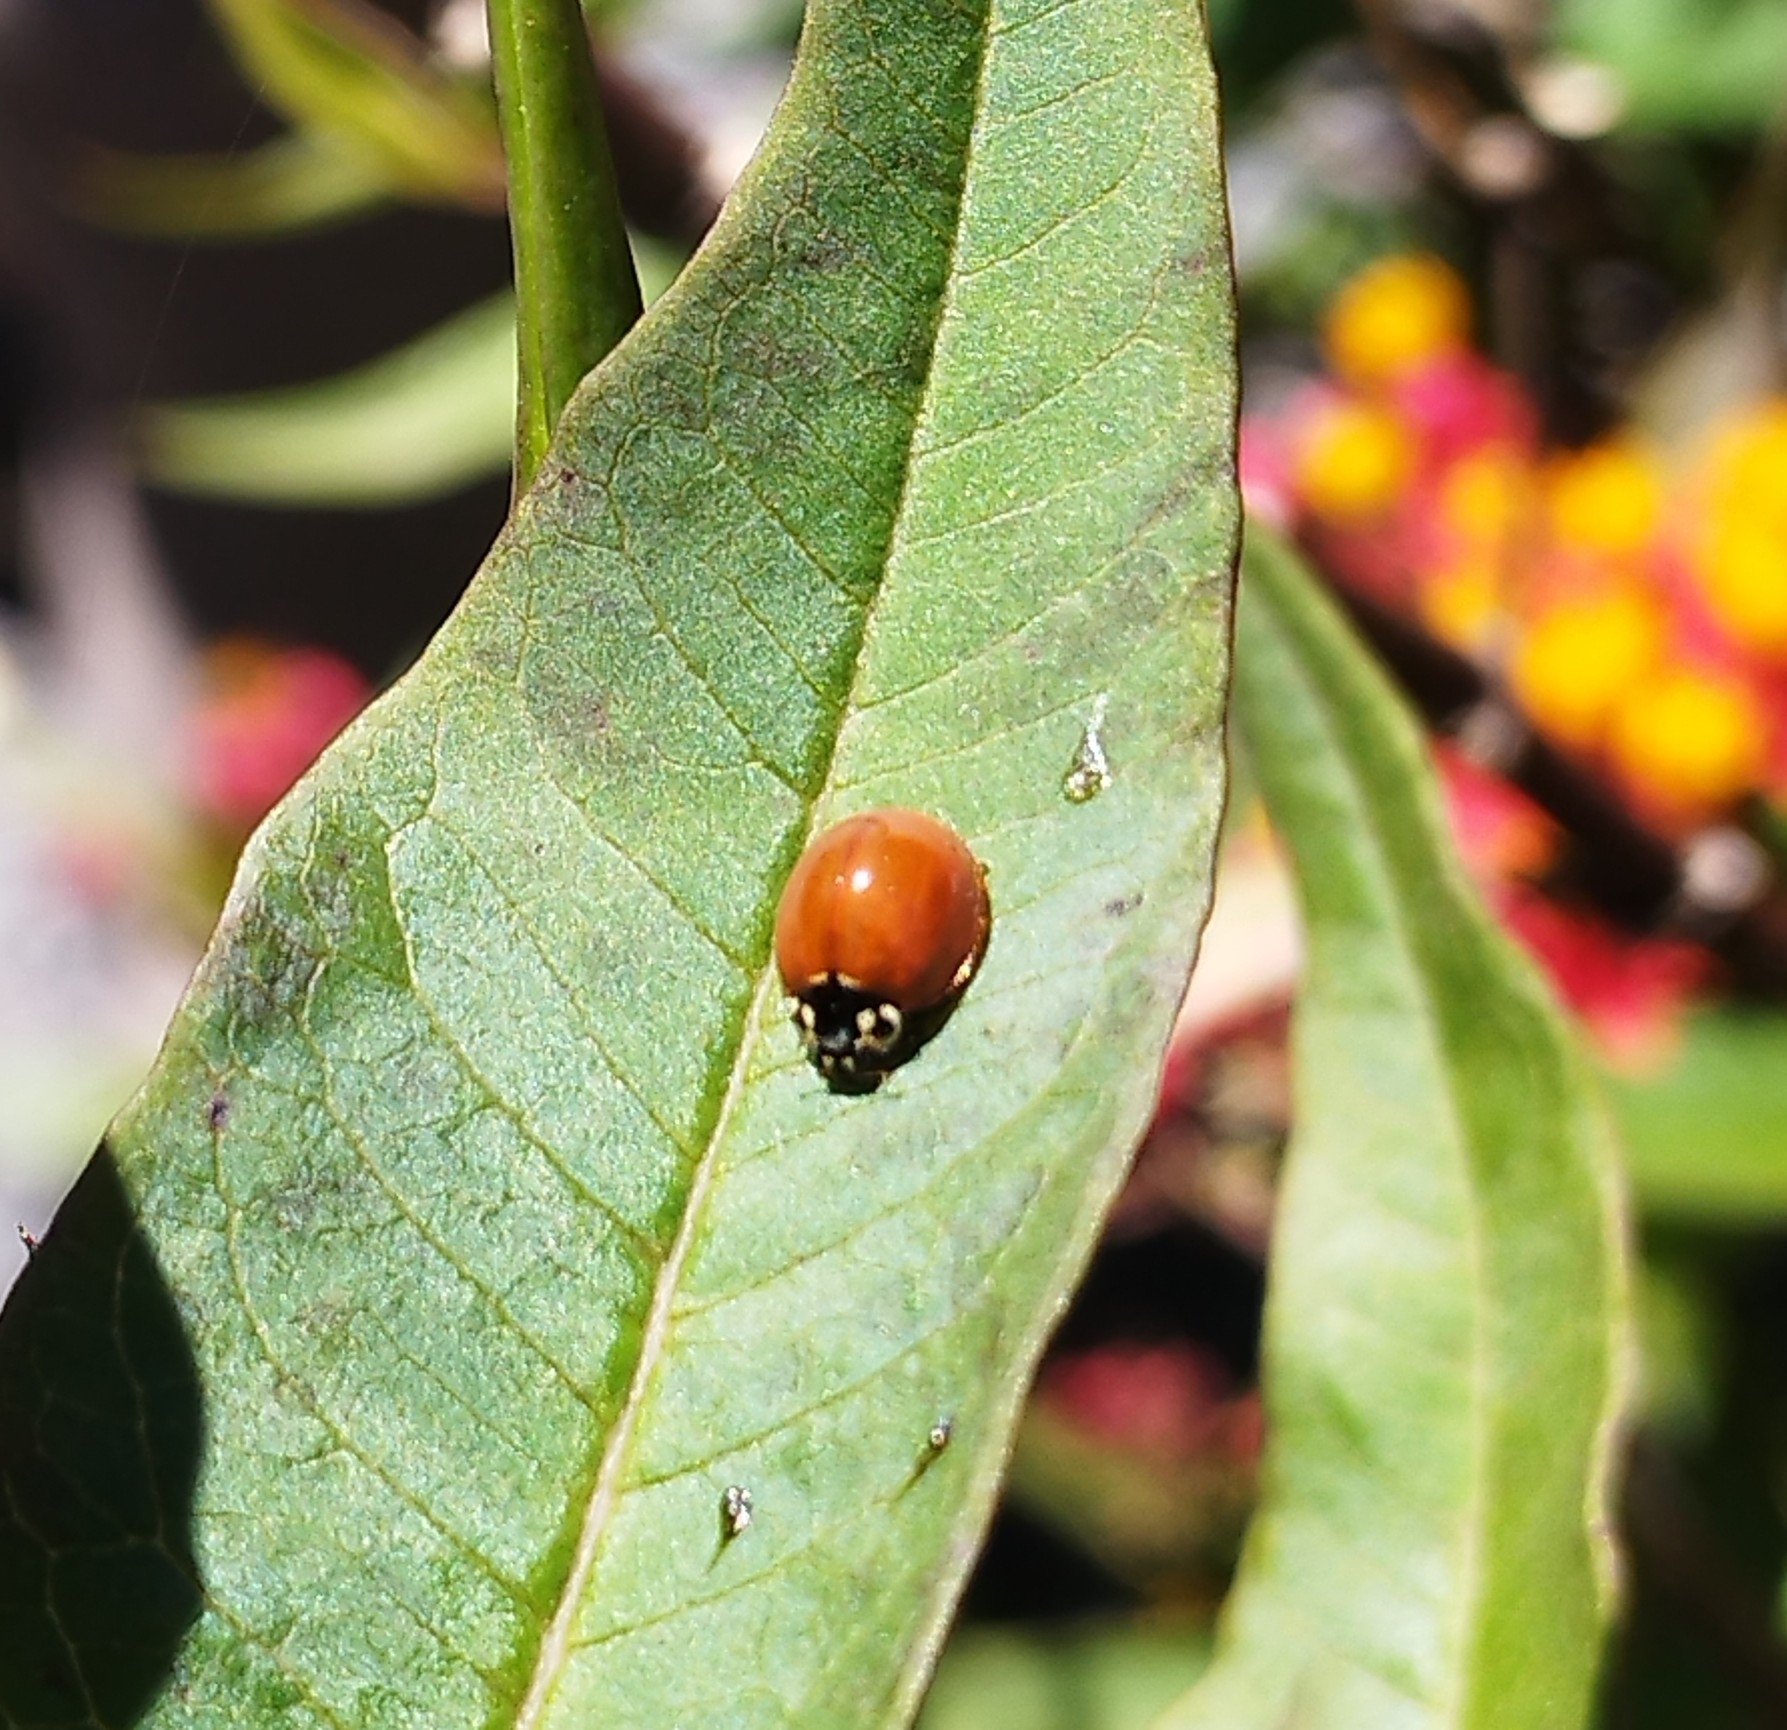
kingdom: Animalia
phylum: Arthropoda
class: Insecta
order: Coleoptera
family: Coccinellidae
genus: Cycloneda
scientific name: Cycloneda sanguinea
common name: Ladybird beetle
